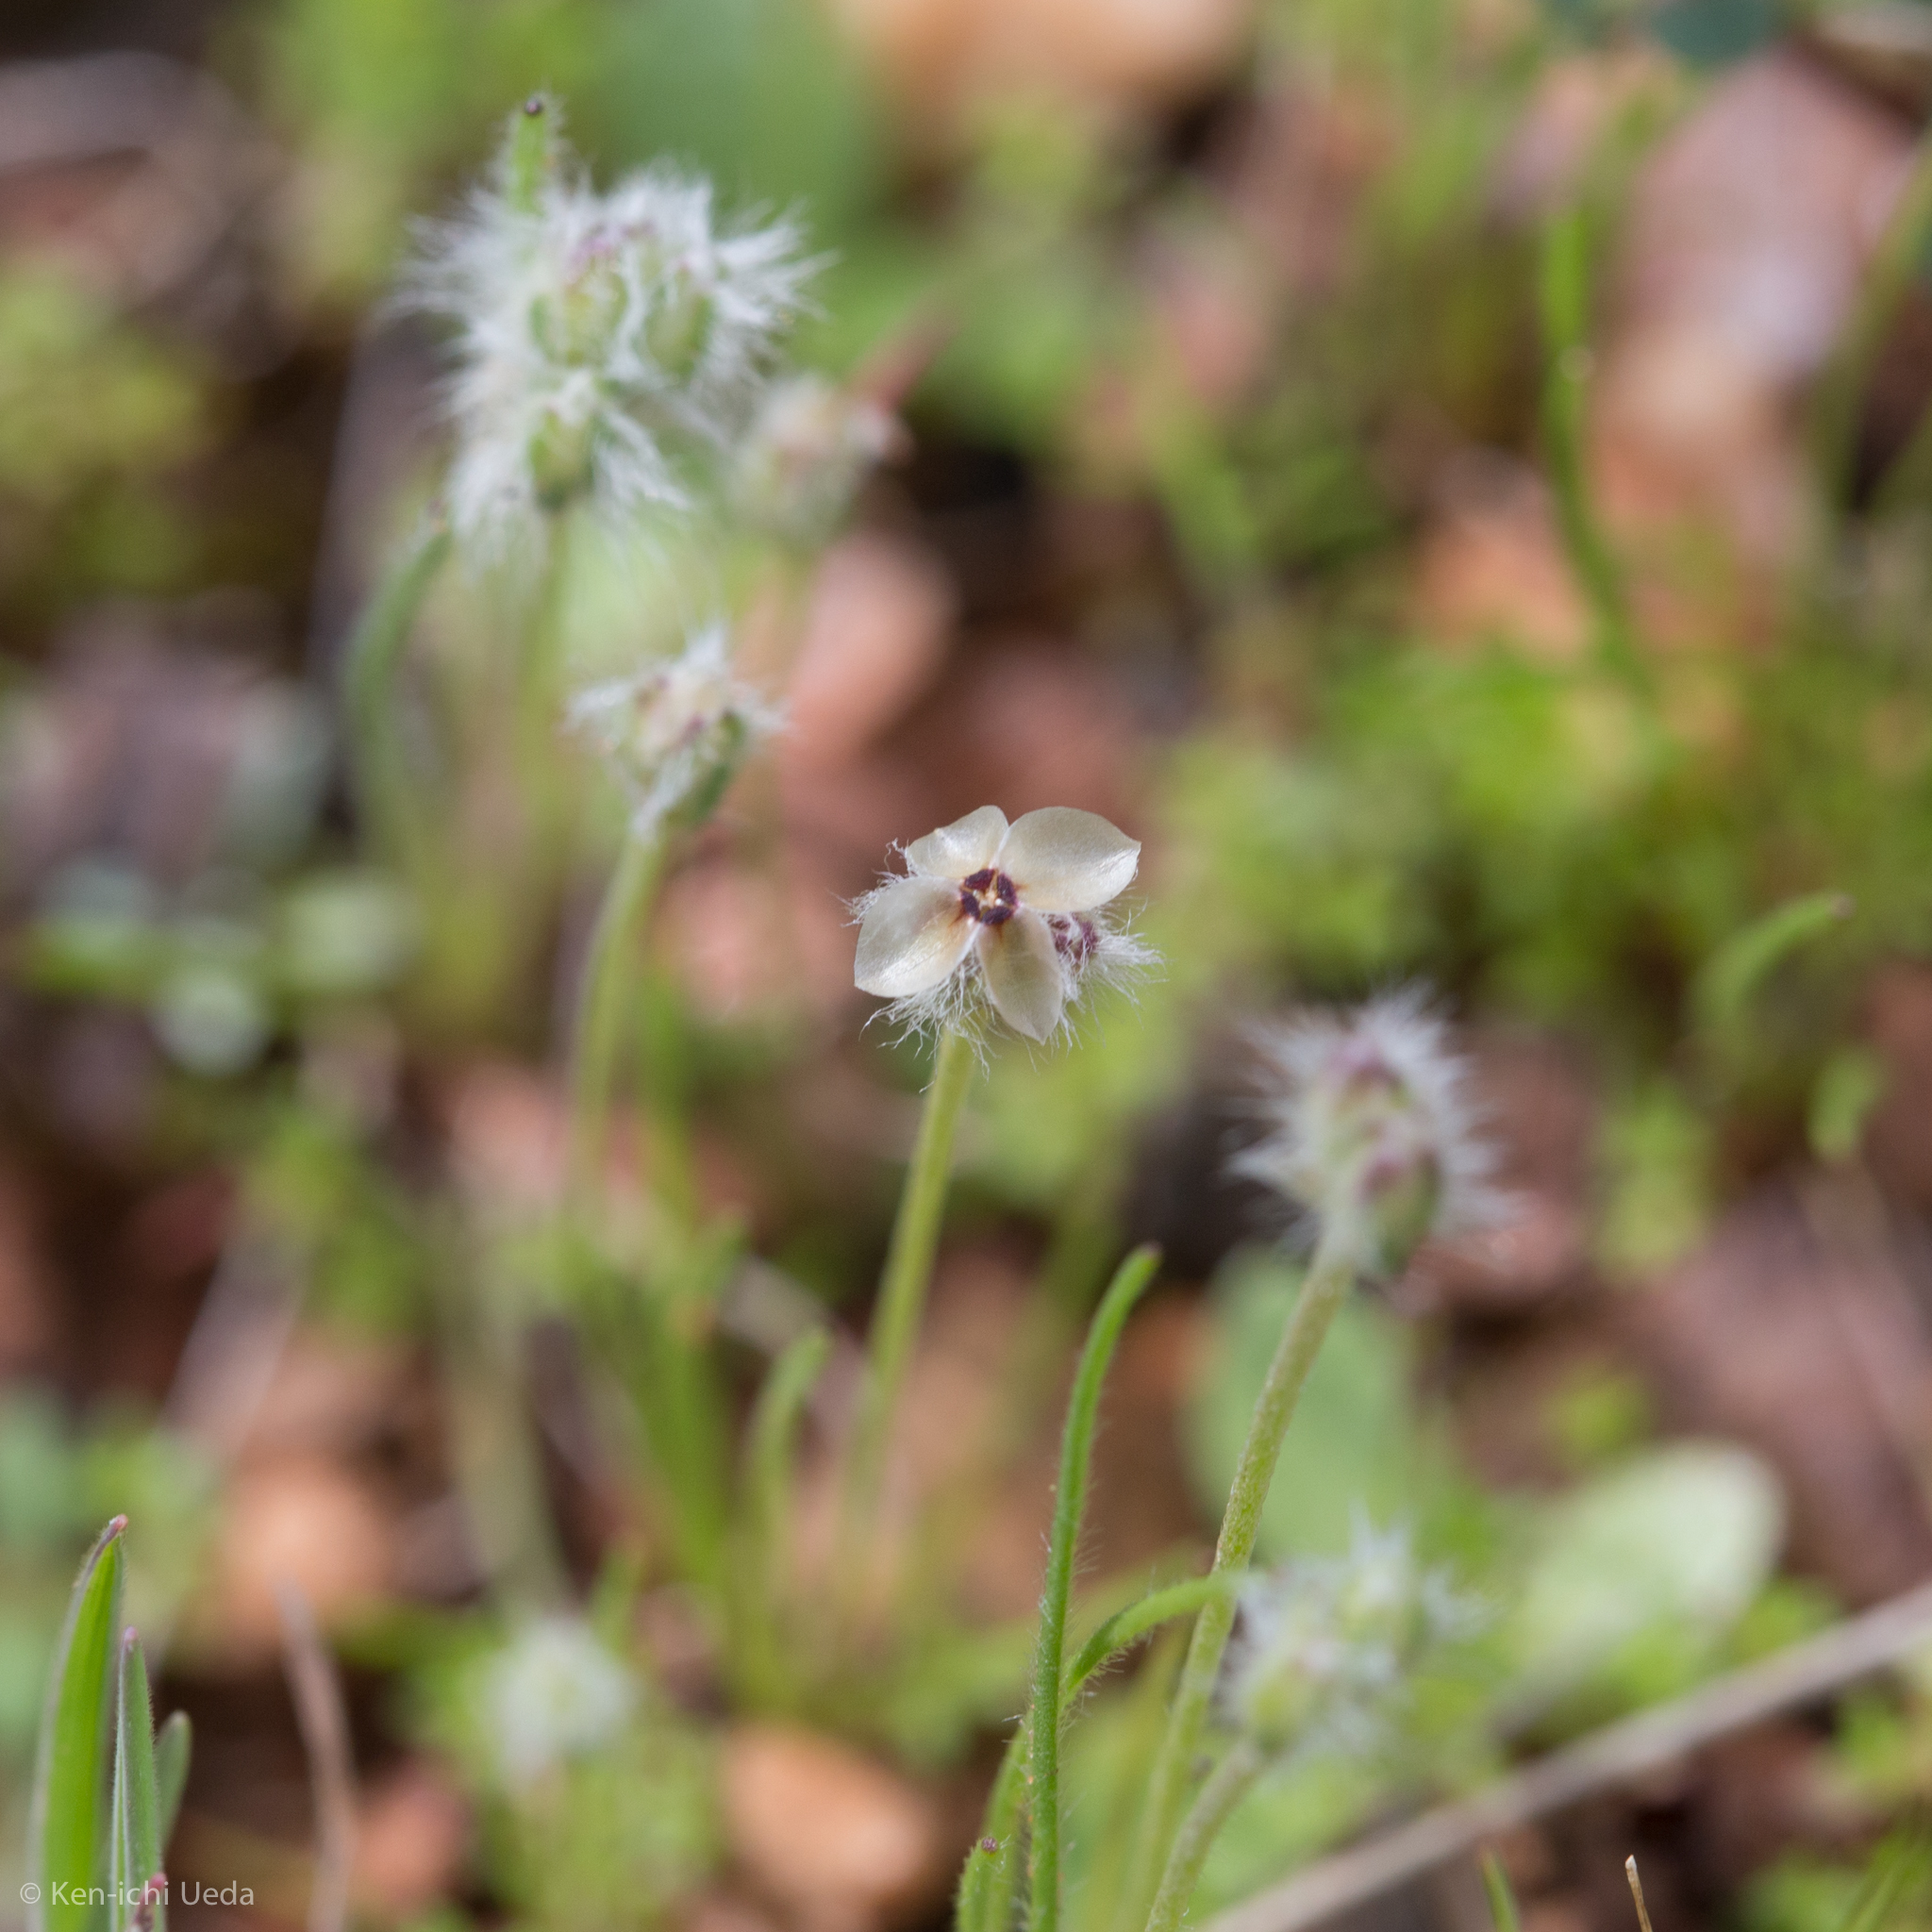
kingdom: Plantae
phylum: Tracheophyta
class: Magnoliopsida
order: Lamiales
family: Plantaginaceae
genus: Plantago
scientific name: Plantago erecta
